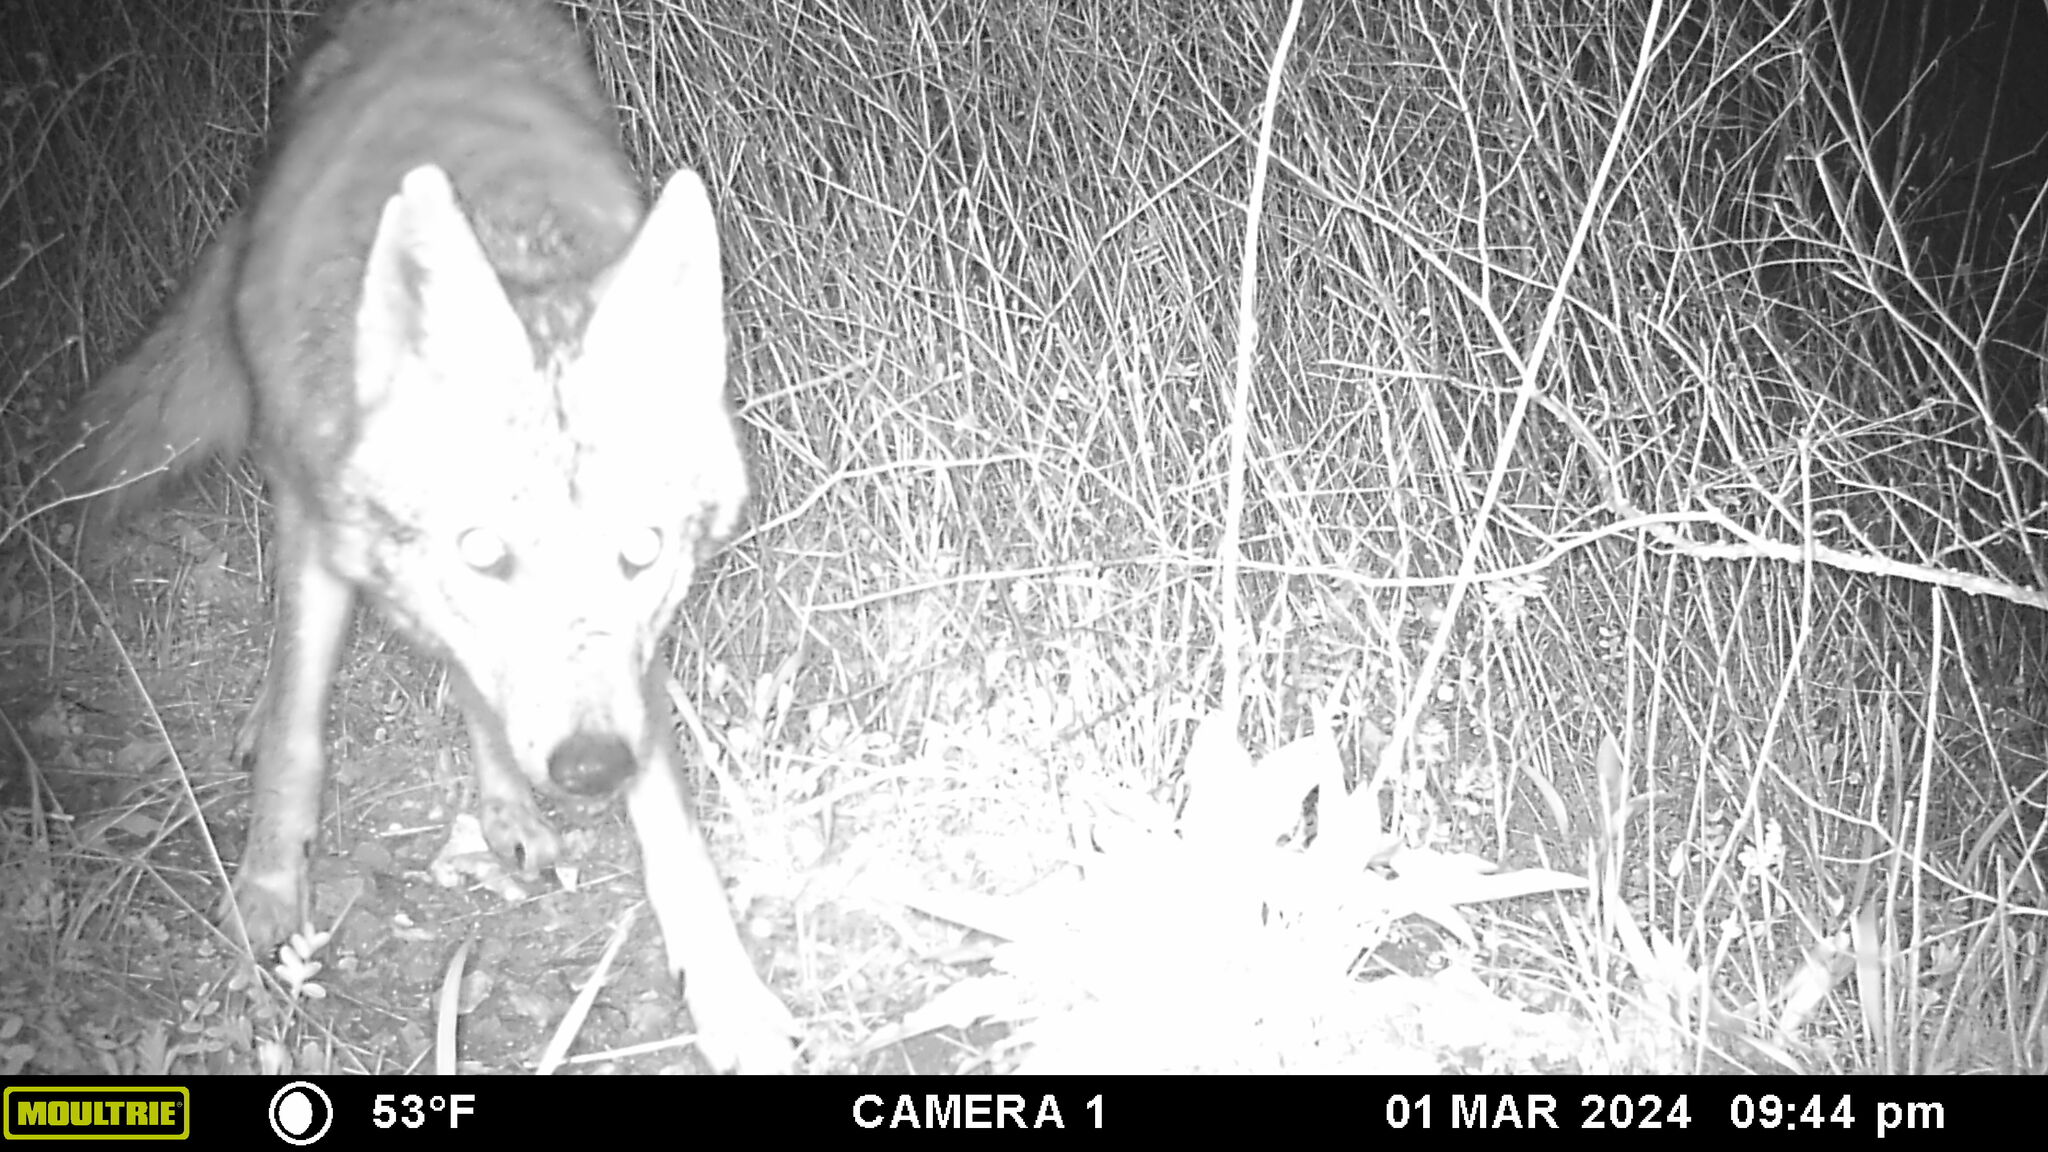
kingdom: Animalia
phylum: Chordata
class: Mammalia
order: Carnivora
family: Canidae
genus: Canis
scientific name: Canis latrans
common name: Coyote
